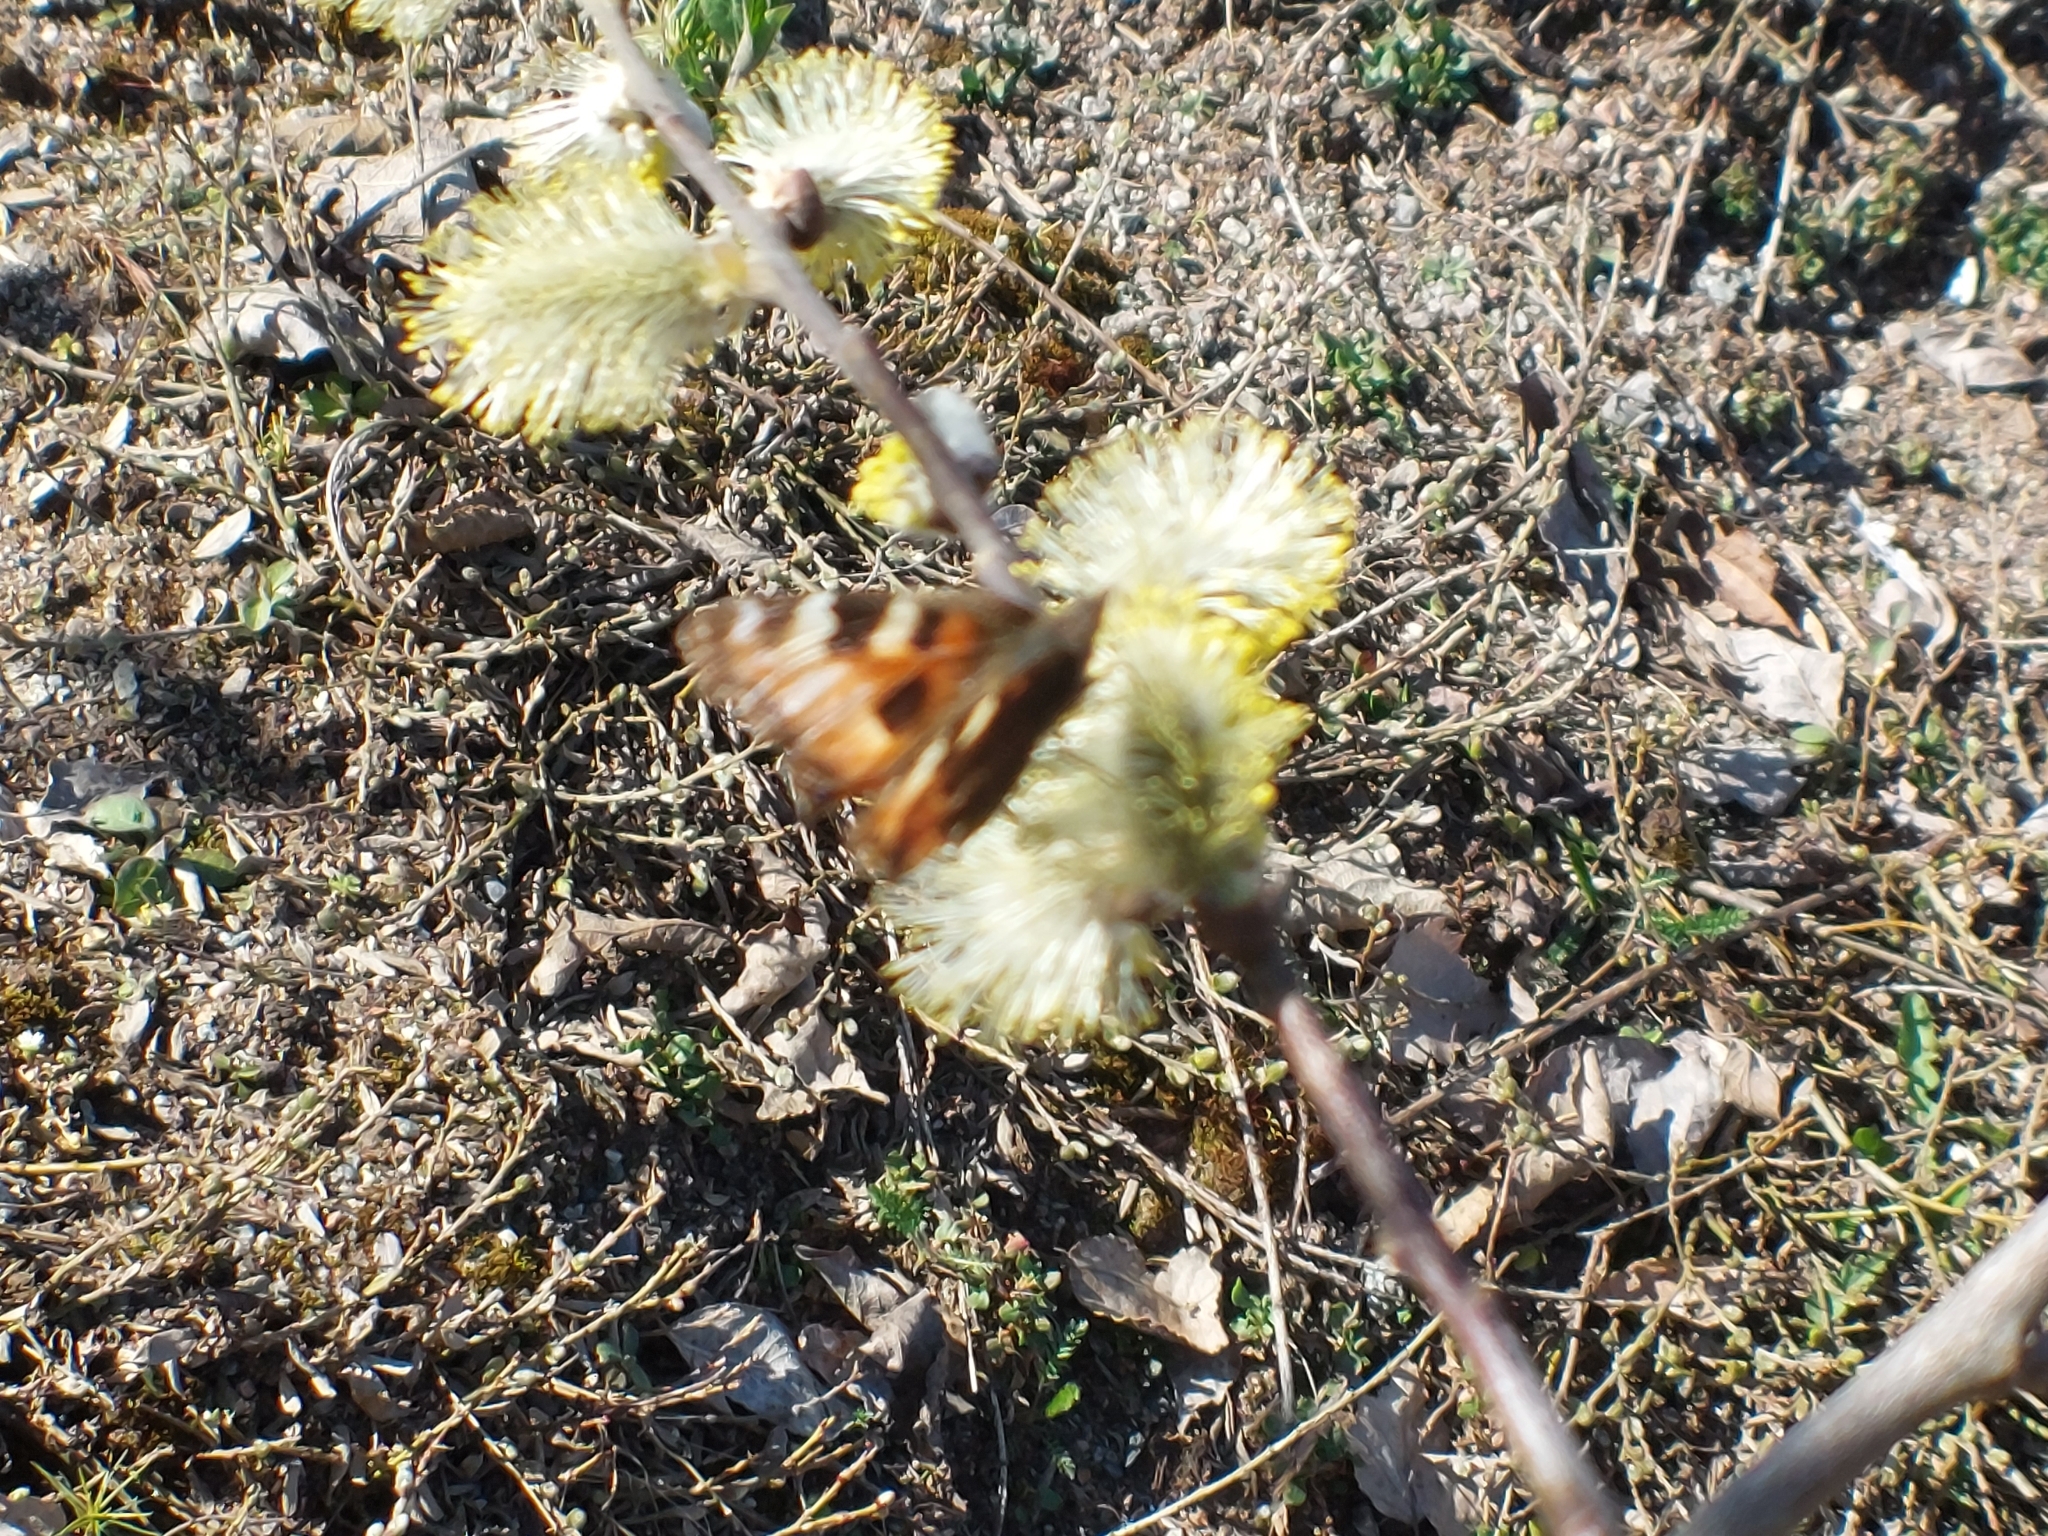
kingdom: Animalia
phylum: Arthropoda
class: Insecta
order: Lepidoptera
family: Nymphalidae
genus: Aglais
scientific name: Aglais urticae
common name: Small tortoiseshell
